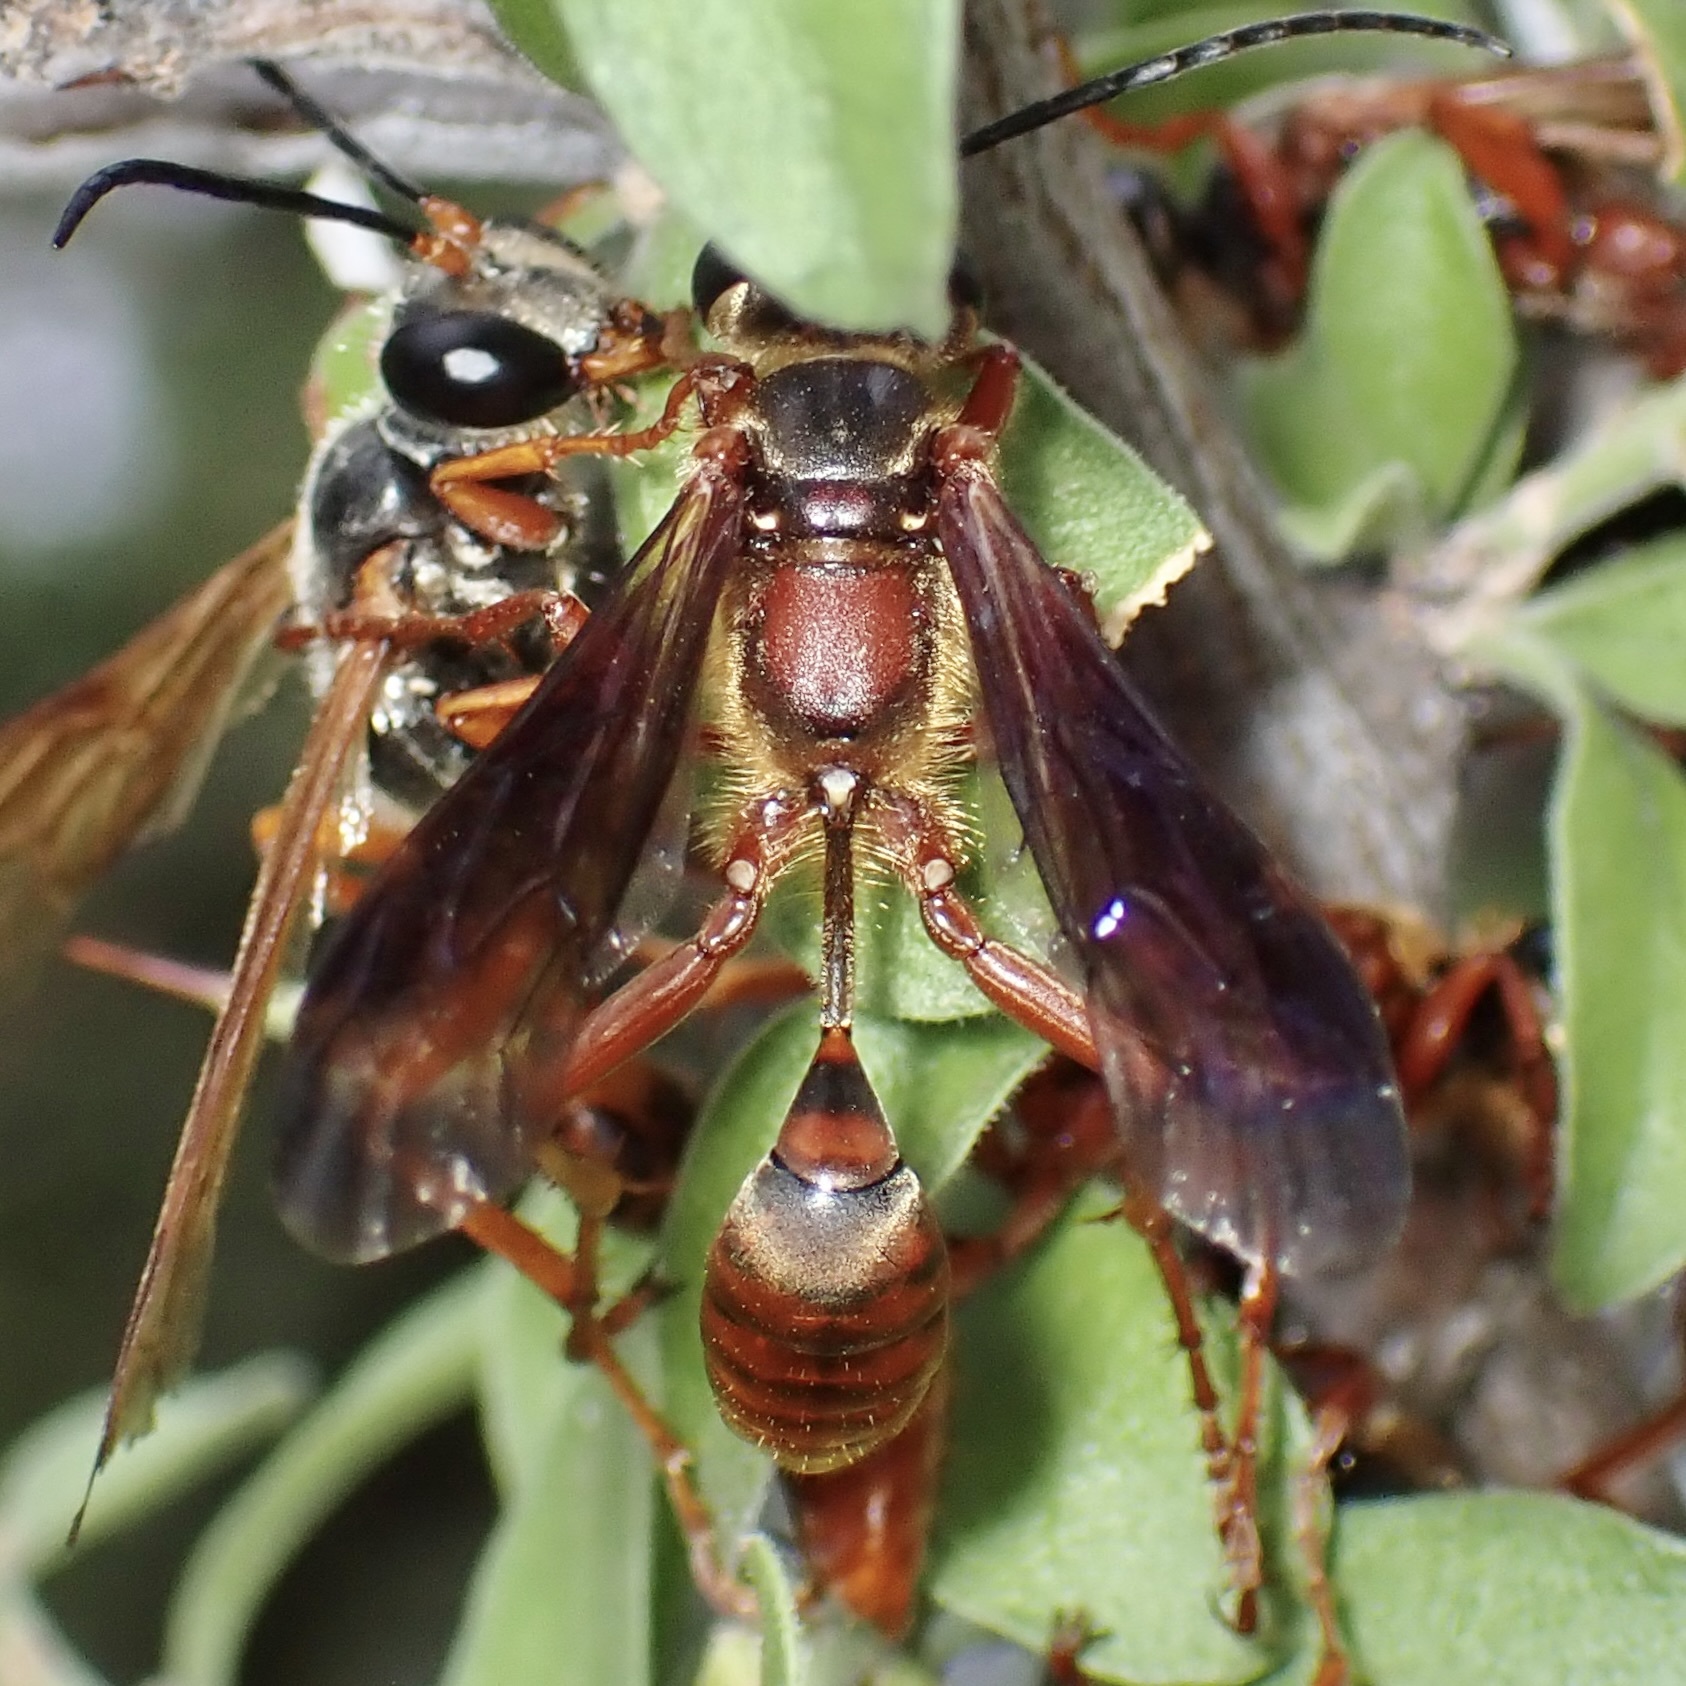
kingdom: Animalia
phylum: Arthropoda
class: Insecta
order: Hymenoptera
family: Sphecidae
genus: Isodontia
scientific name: Isodontia elegans
